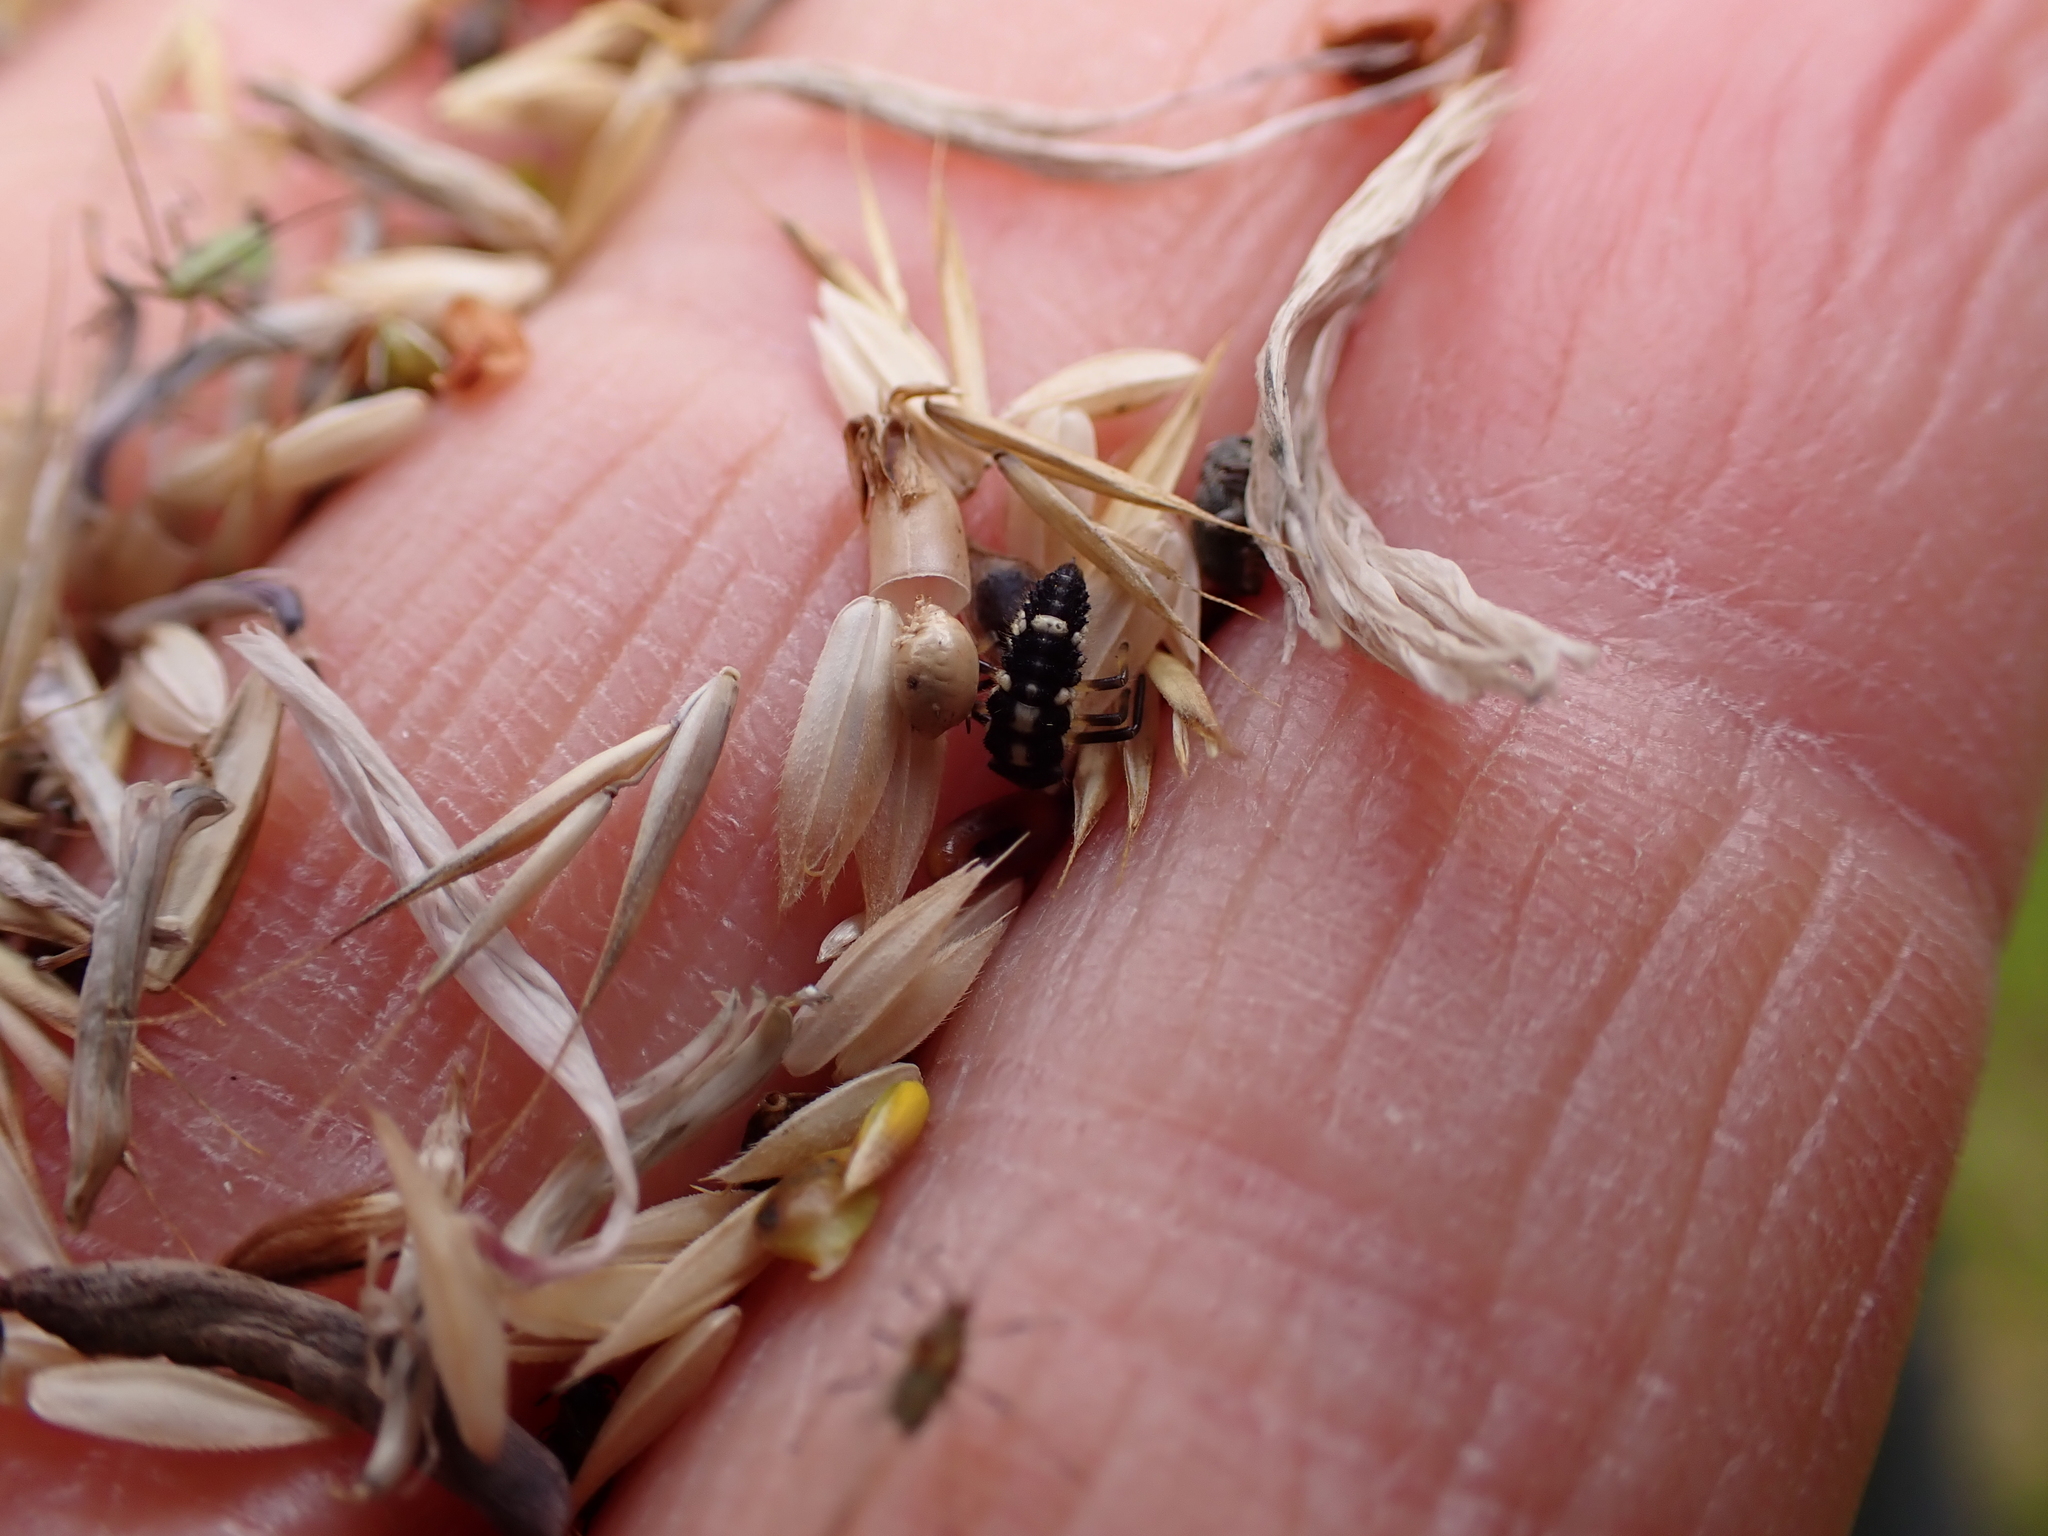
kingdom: Animalia
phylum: Arthropoda
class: Insecta
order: Coleoptera
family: Coccinellidae
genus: Propylaea
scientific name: Propylaea quatuordecimpunctata
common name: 14-spotted ladybird beetle
